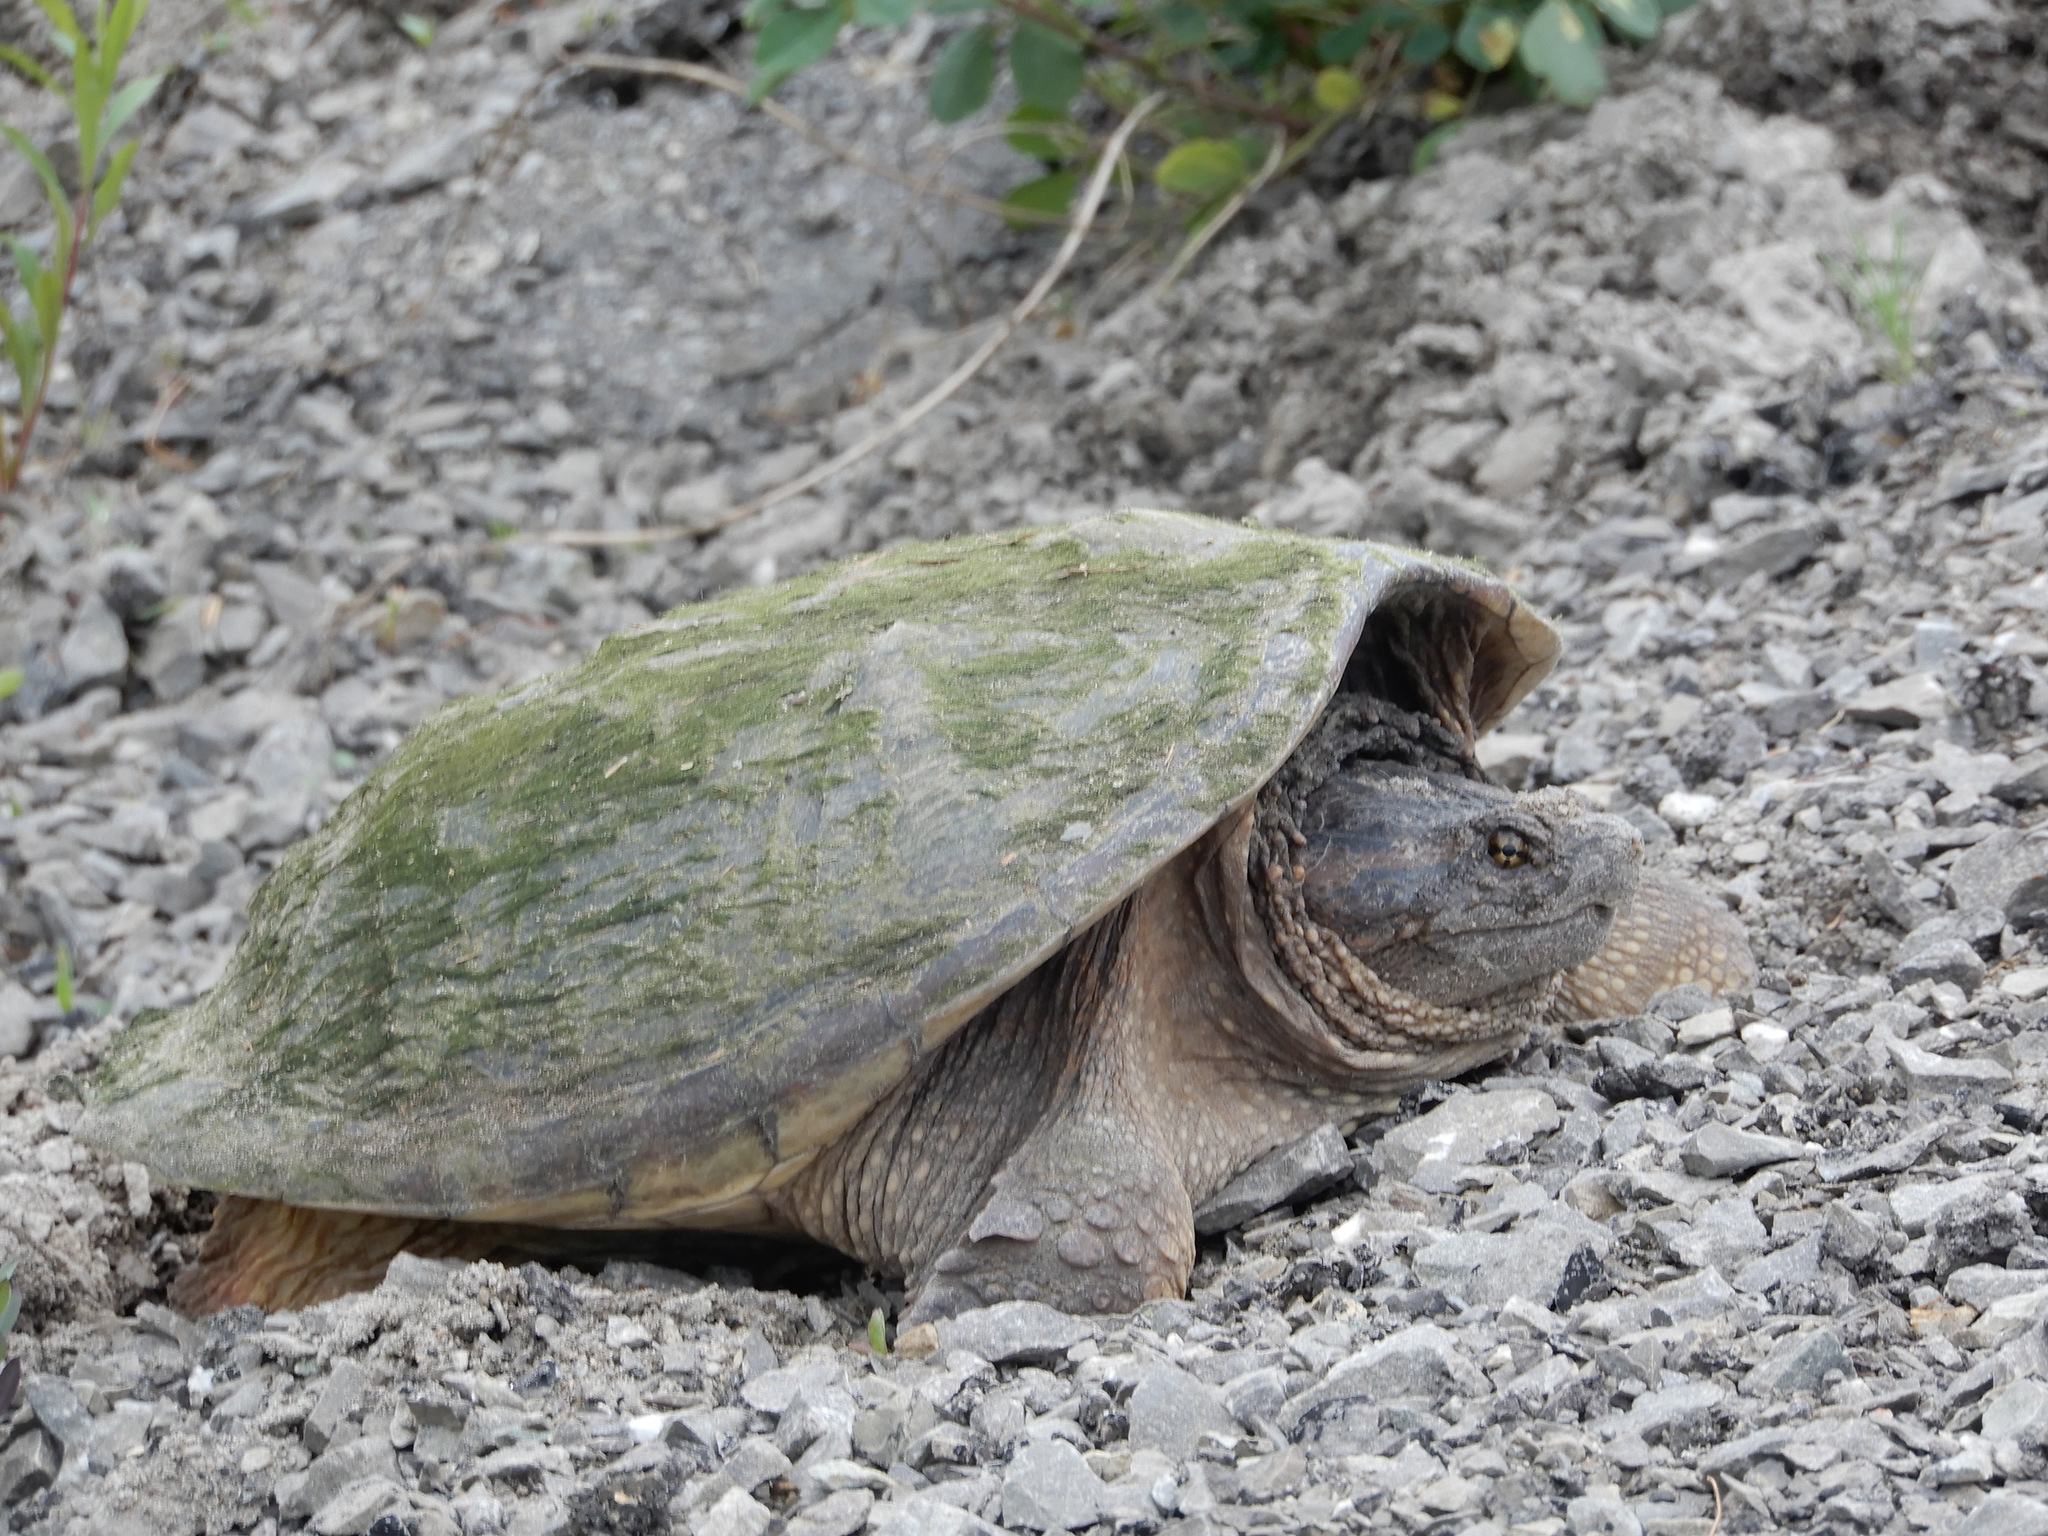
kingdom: Animalia
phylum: Chordata
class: Testudines
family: Chelydridae
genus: Chelydra
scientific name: Chelydra serpentina
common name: Common snapping turtle
